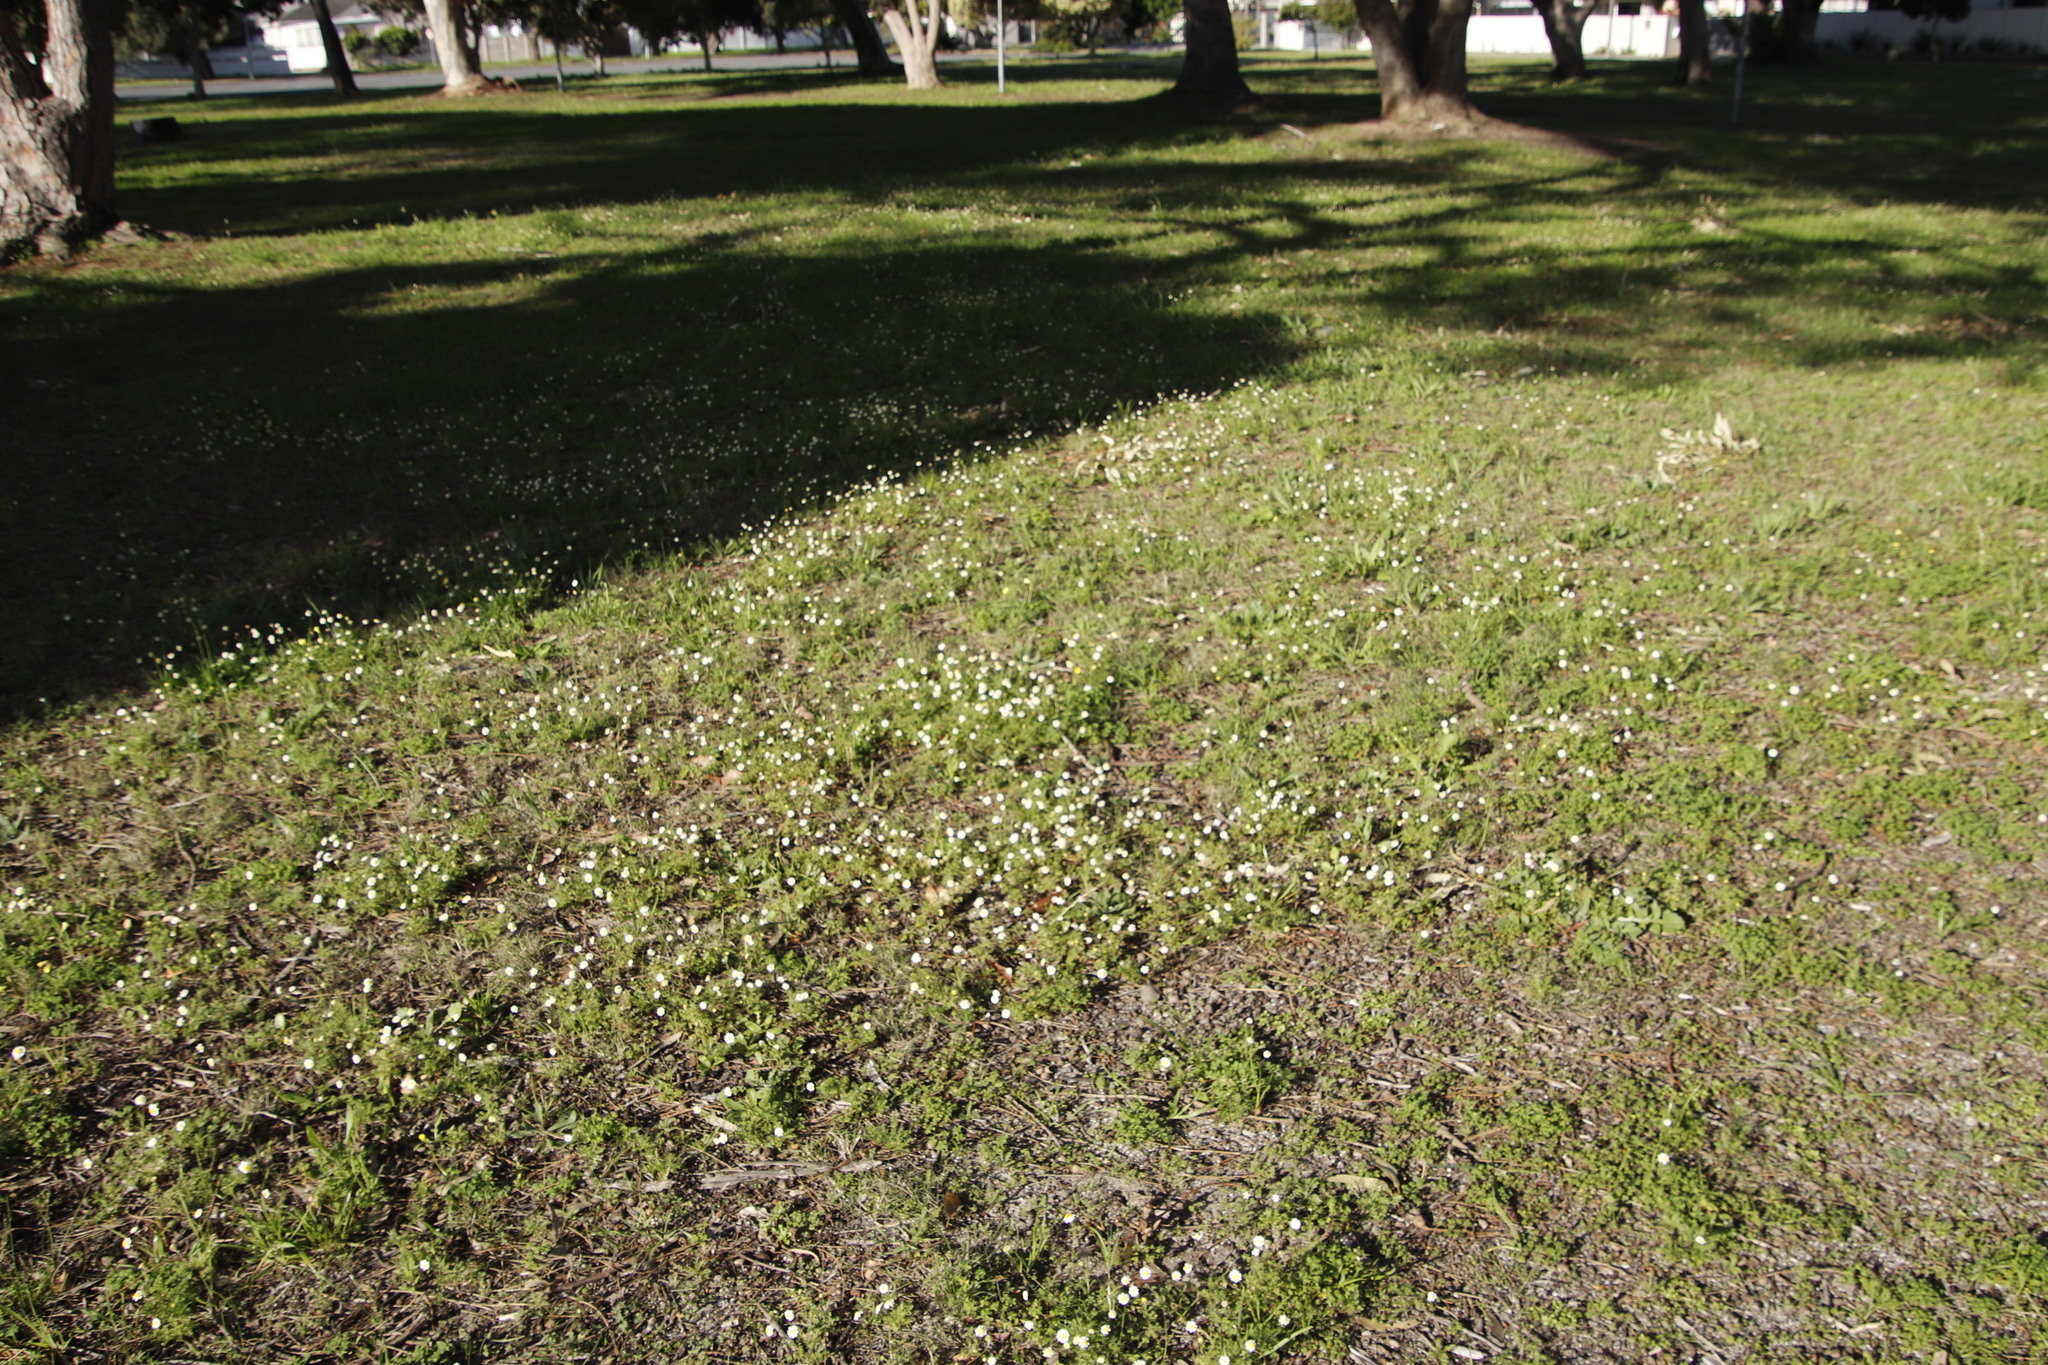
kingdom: Plantae
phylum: Tracheophyta
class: Magnoliopsida
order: Asterales
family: Asteraceae
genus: Cotula
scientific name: Cotula turbinata
